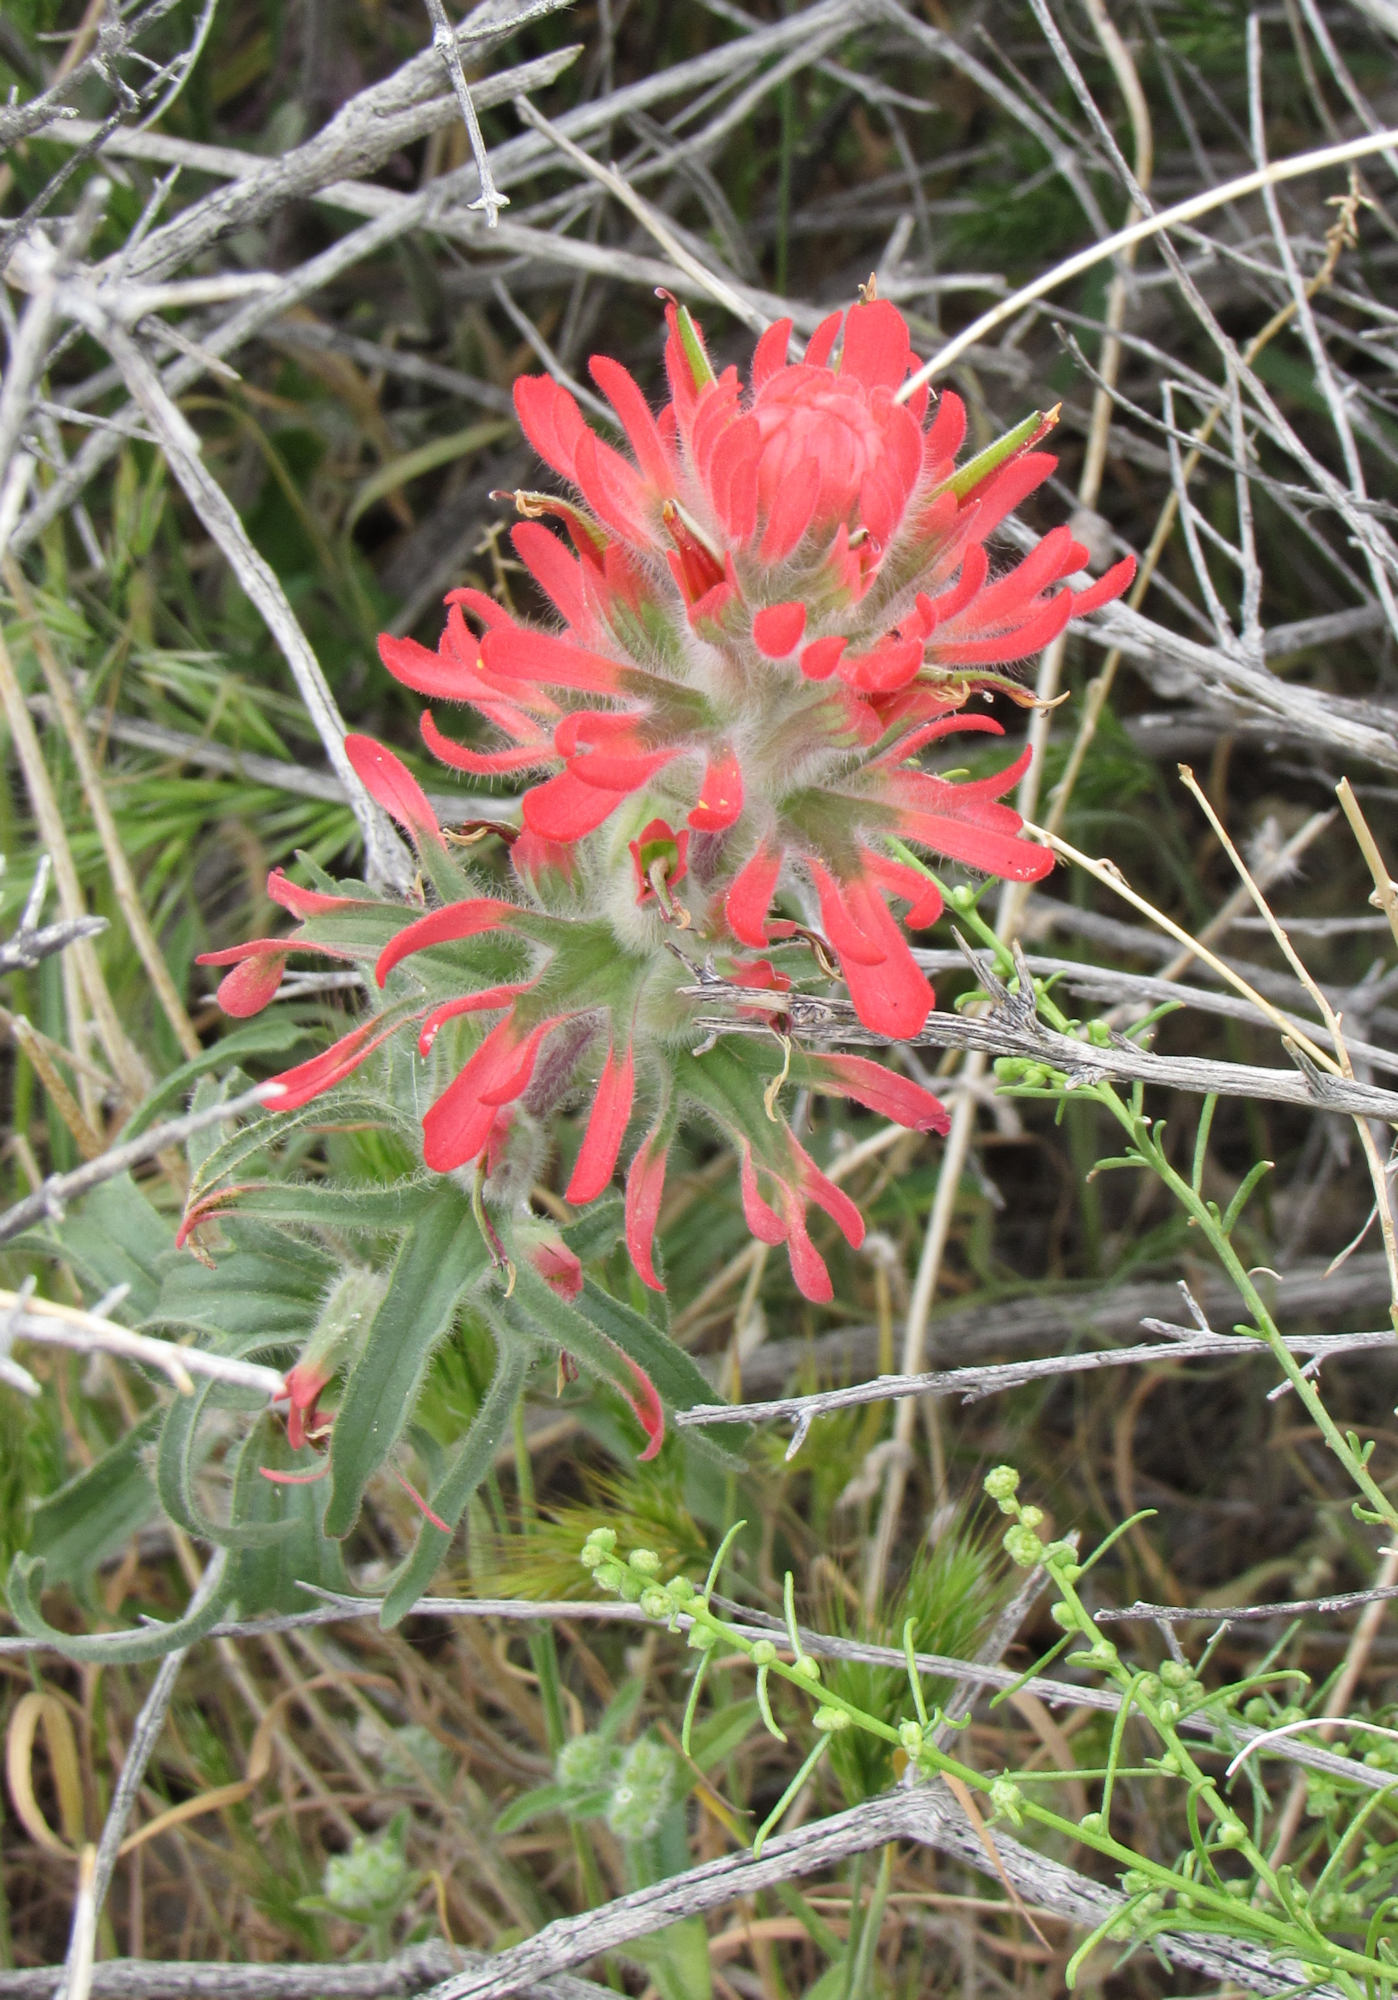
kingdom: Plantae
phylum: Tracheophyta
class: Magnoliopsida
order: Lamiales
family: Orobanchaceae
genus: Castilleja
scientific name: Castilleja chromosa
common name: Desert paintbrush
